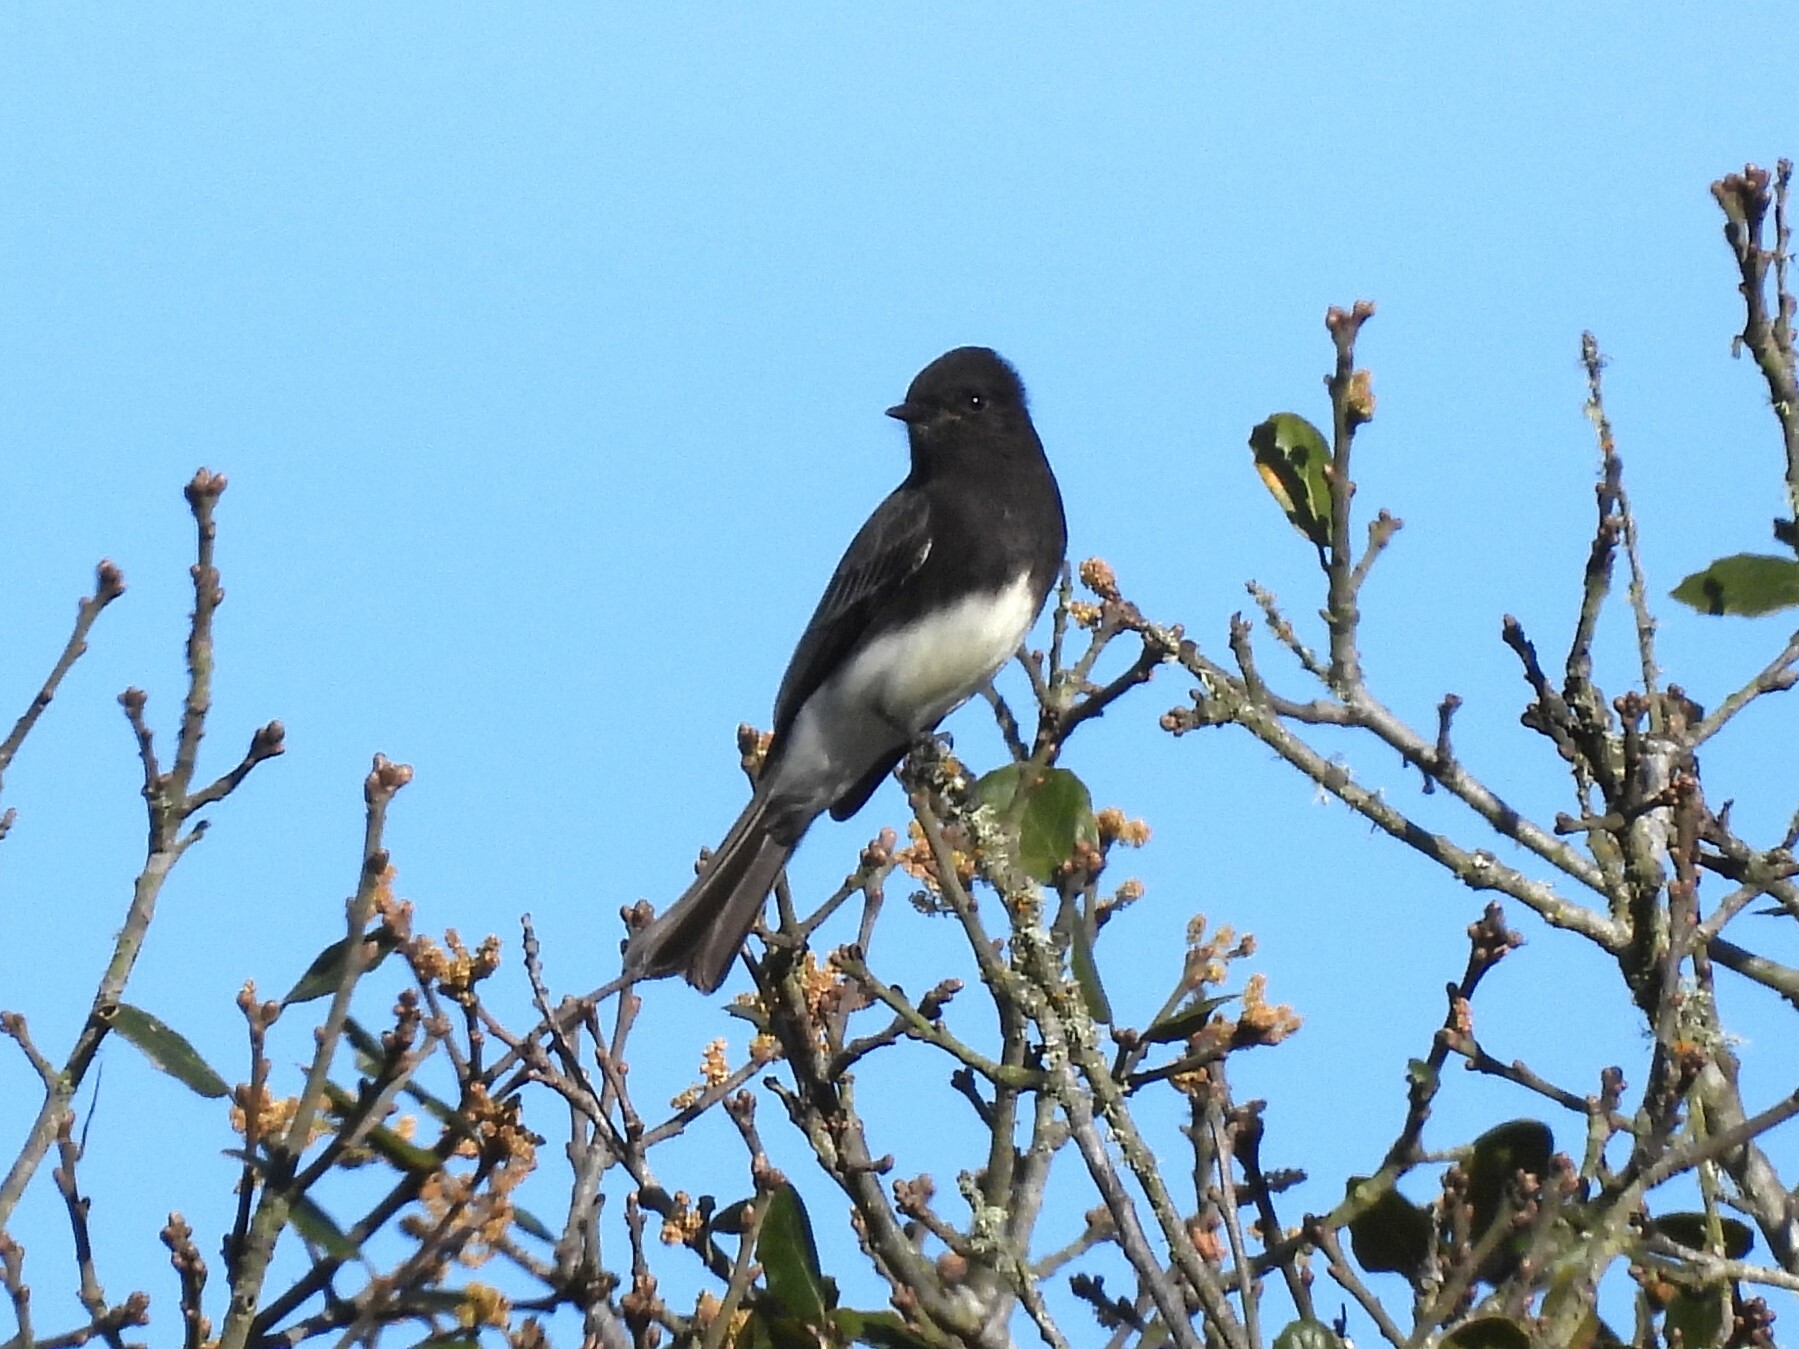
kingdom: Animalia
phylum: Chordata
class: Aves
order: Passeriformes
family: Tyrannidae
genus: Sayornis
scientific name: Sayornis nigricans
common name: Black phoebe
